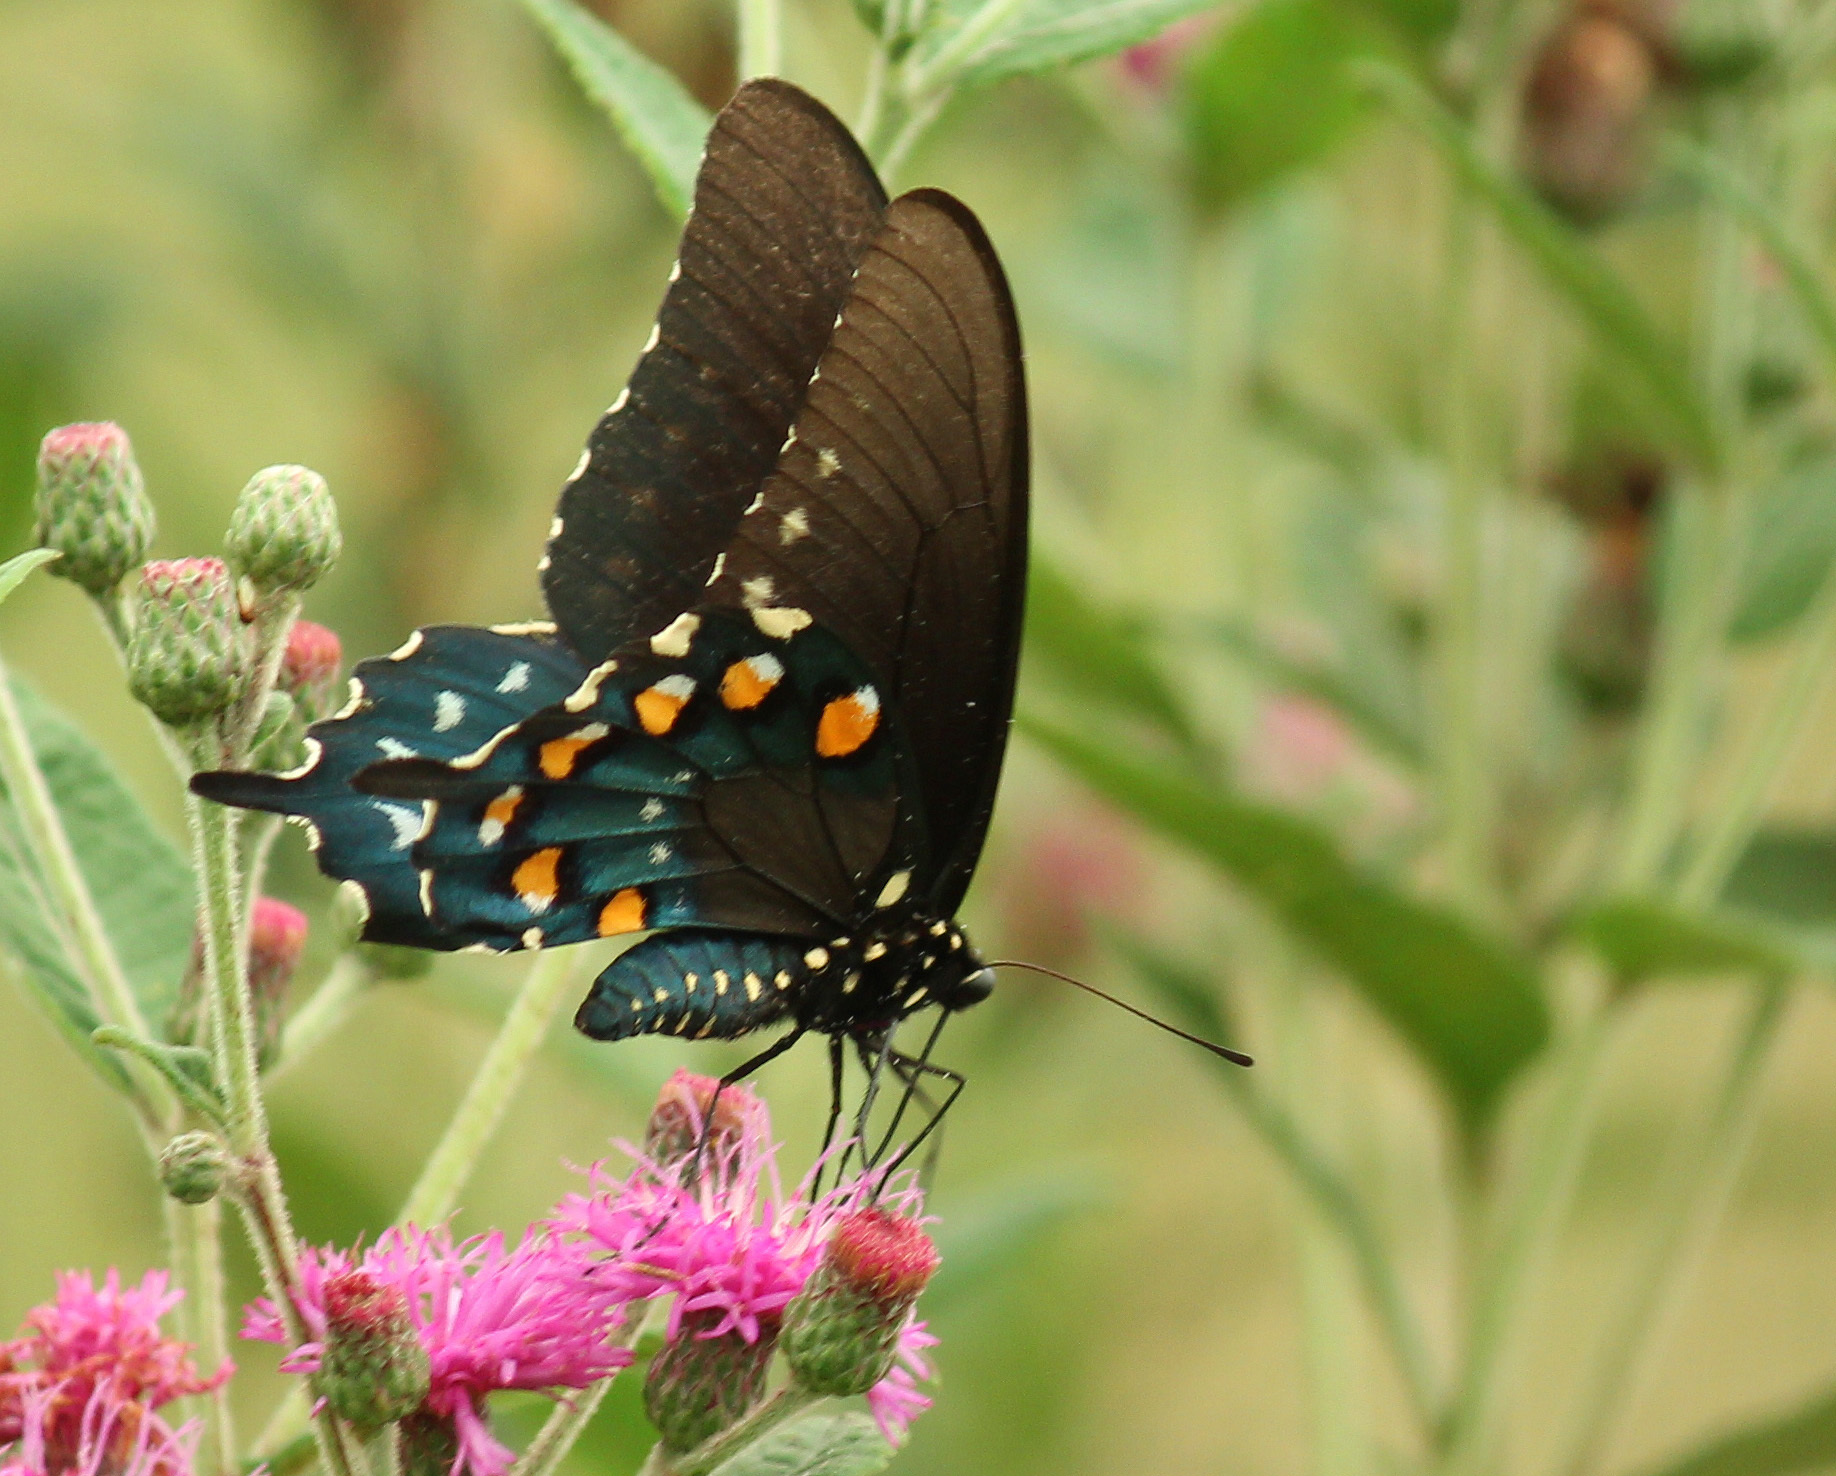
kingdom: Animalia
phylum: Arthropoda
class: Insecta
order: Lepidoptera
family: Papilionidae
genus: Battus
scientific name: Battus philenor
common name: Pipevine swallowtail
